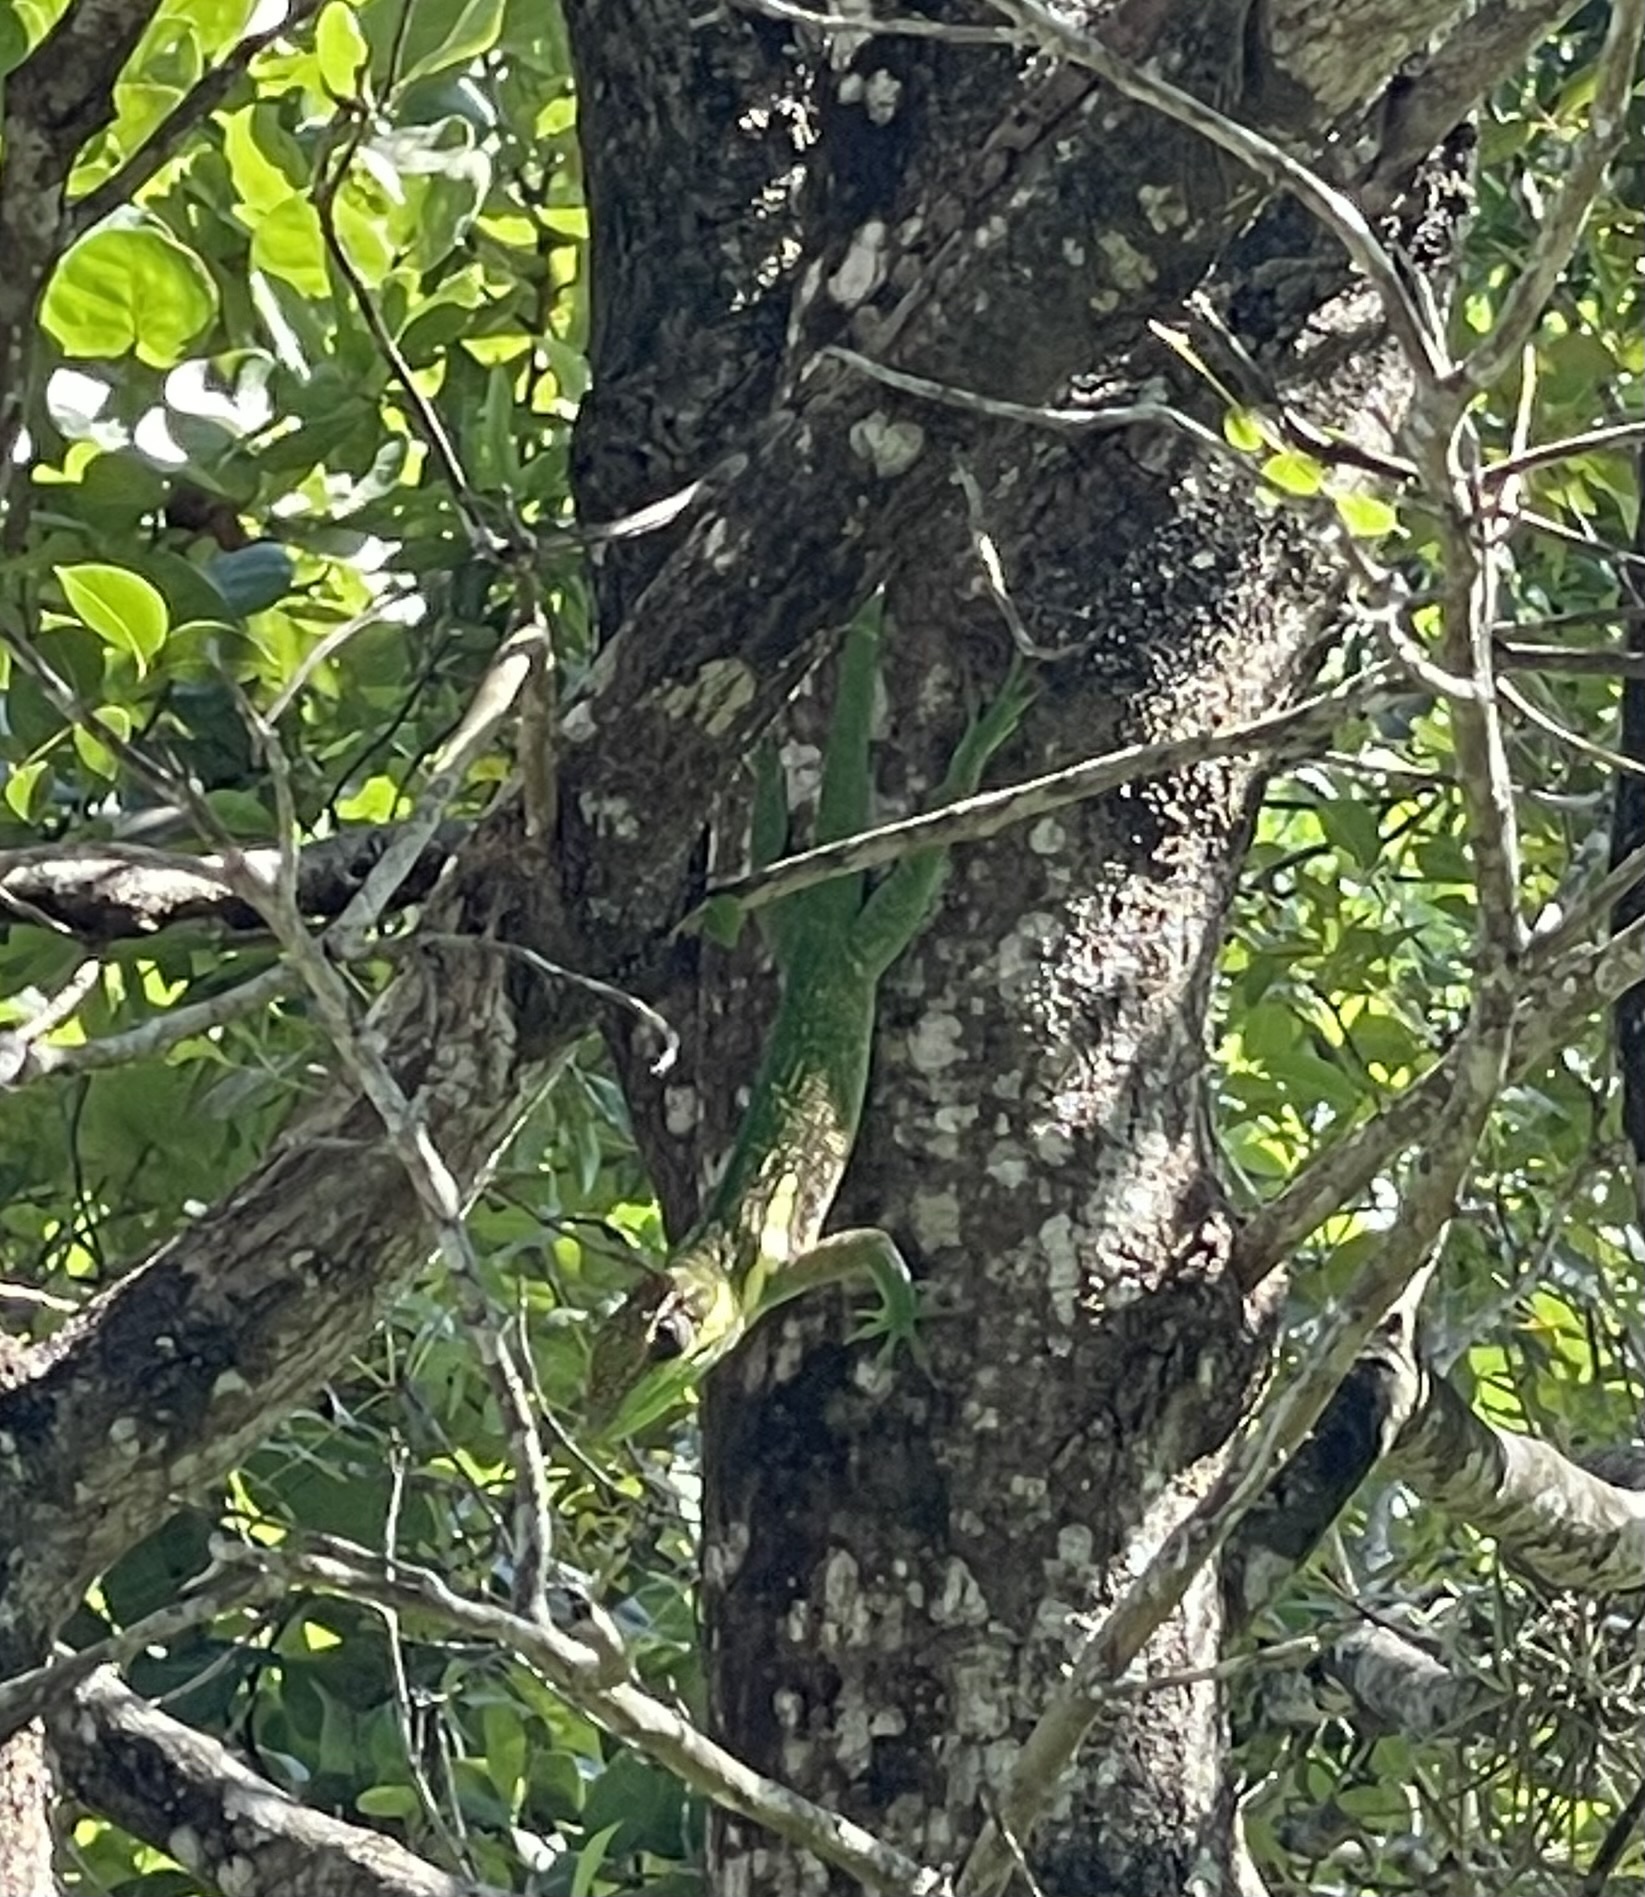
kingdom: Animalia
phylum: Chordata
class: Squamata
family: Dactyloidae
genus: Anolis
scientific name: Anolis equestris
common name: Knight anole
